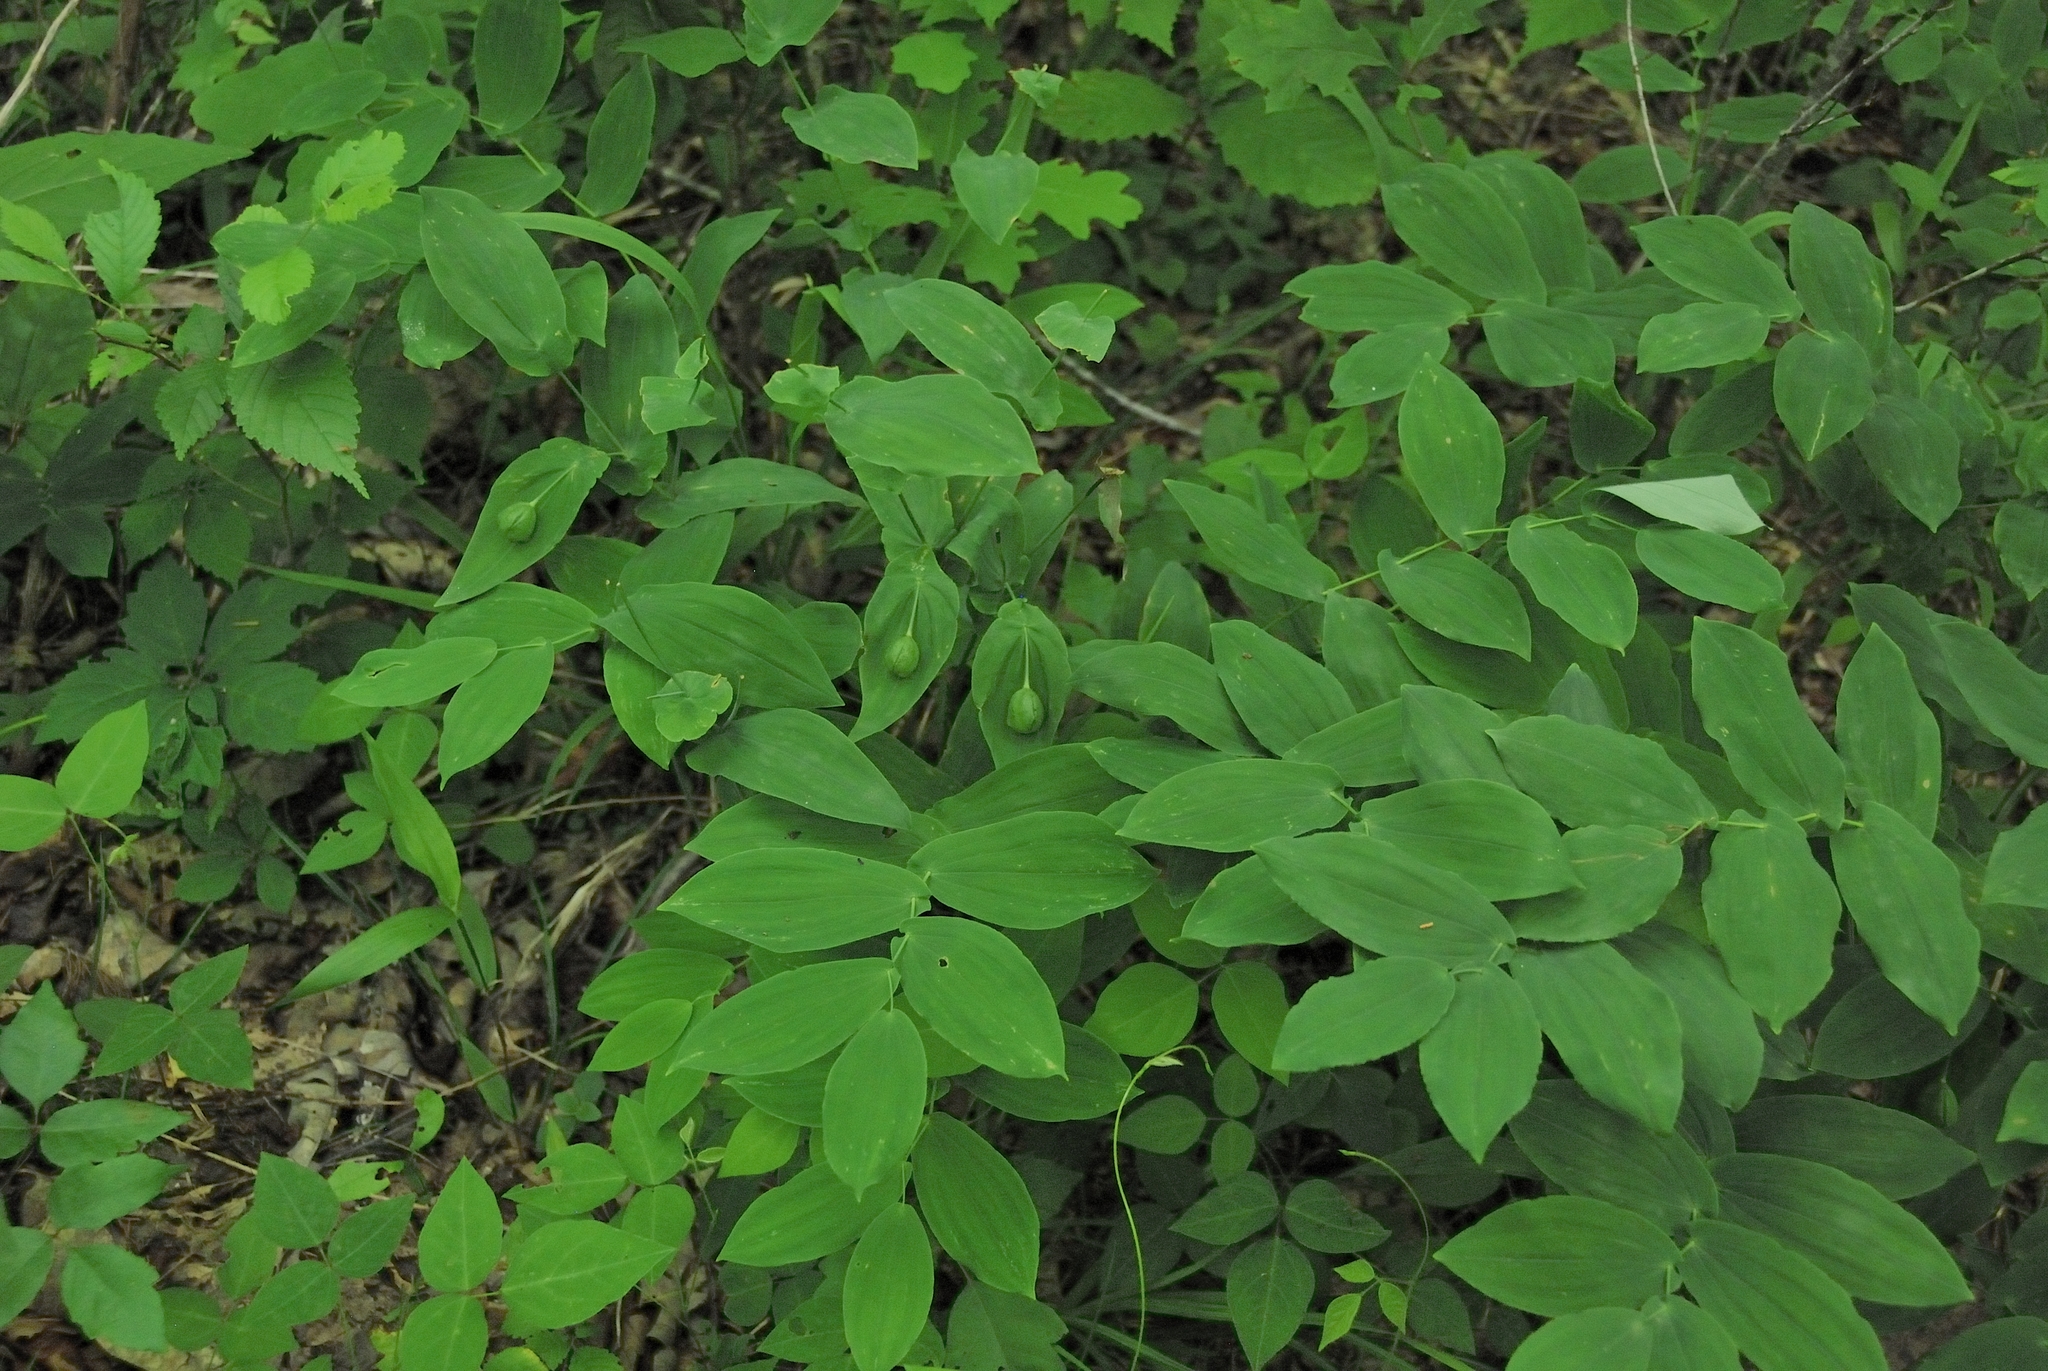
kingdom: Plantae
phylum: Tracheophyta
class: Liliopsida
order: Liliales
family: Colchicaceae
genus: Uvularia
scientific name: Uvularia grandiflora
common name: Bellwort
